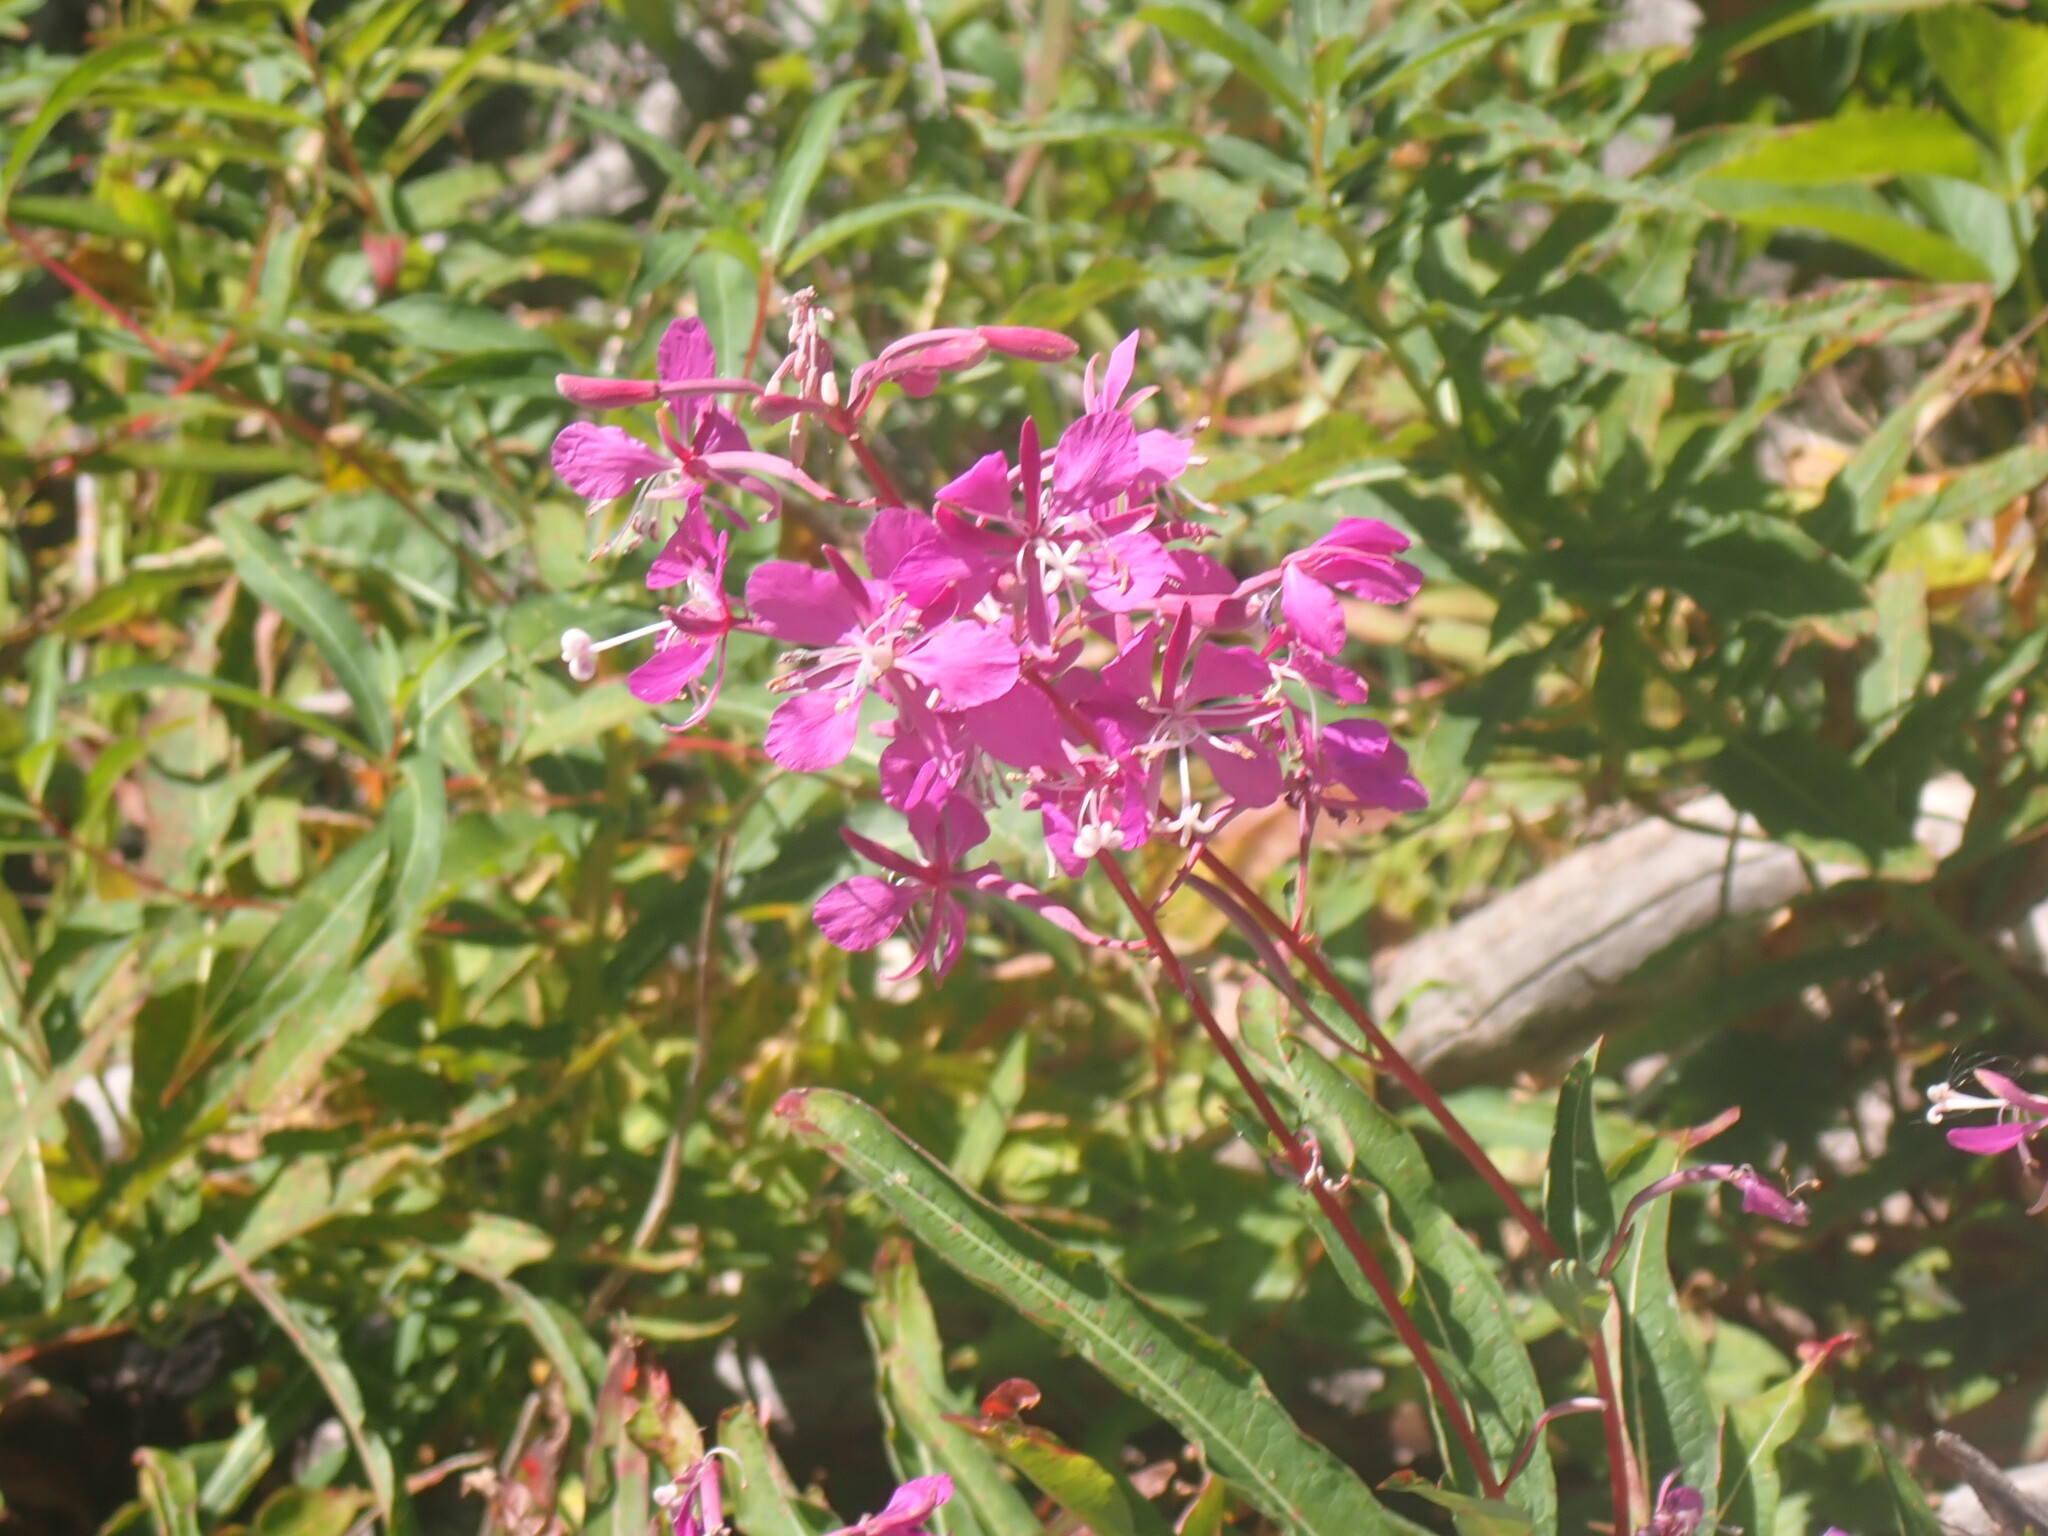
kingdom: Plantae
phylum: Tracheophyta
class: Magnoliopsida
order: Myrtales
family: Onagraceae
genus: Chamaenerion
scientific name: Chamaenerion angustifolium
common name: Fireweed
